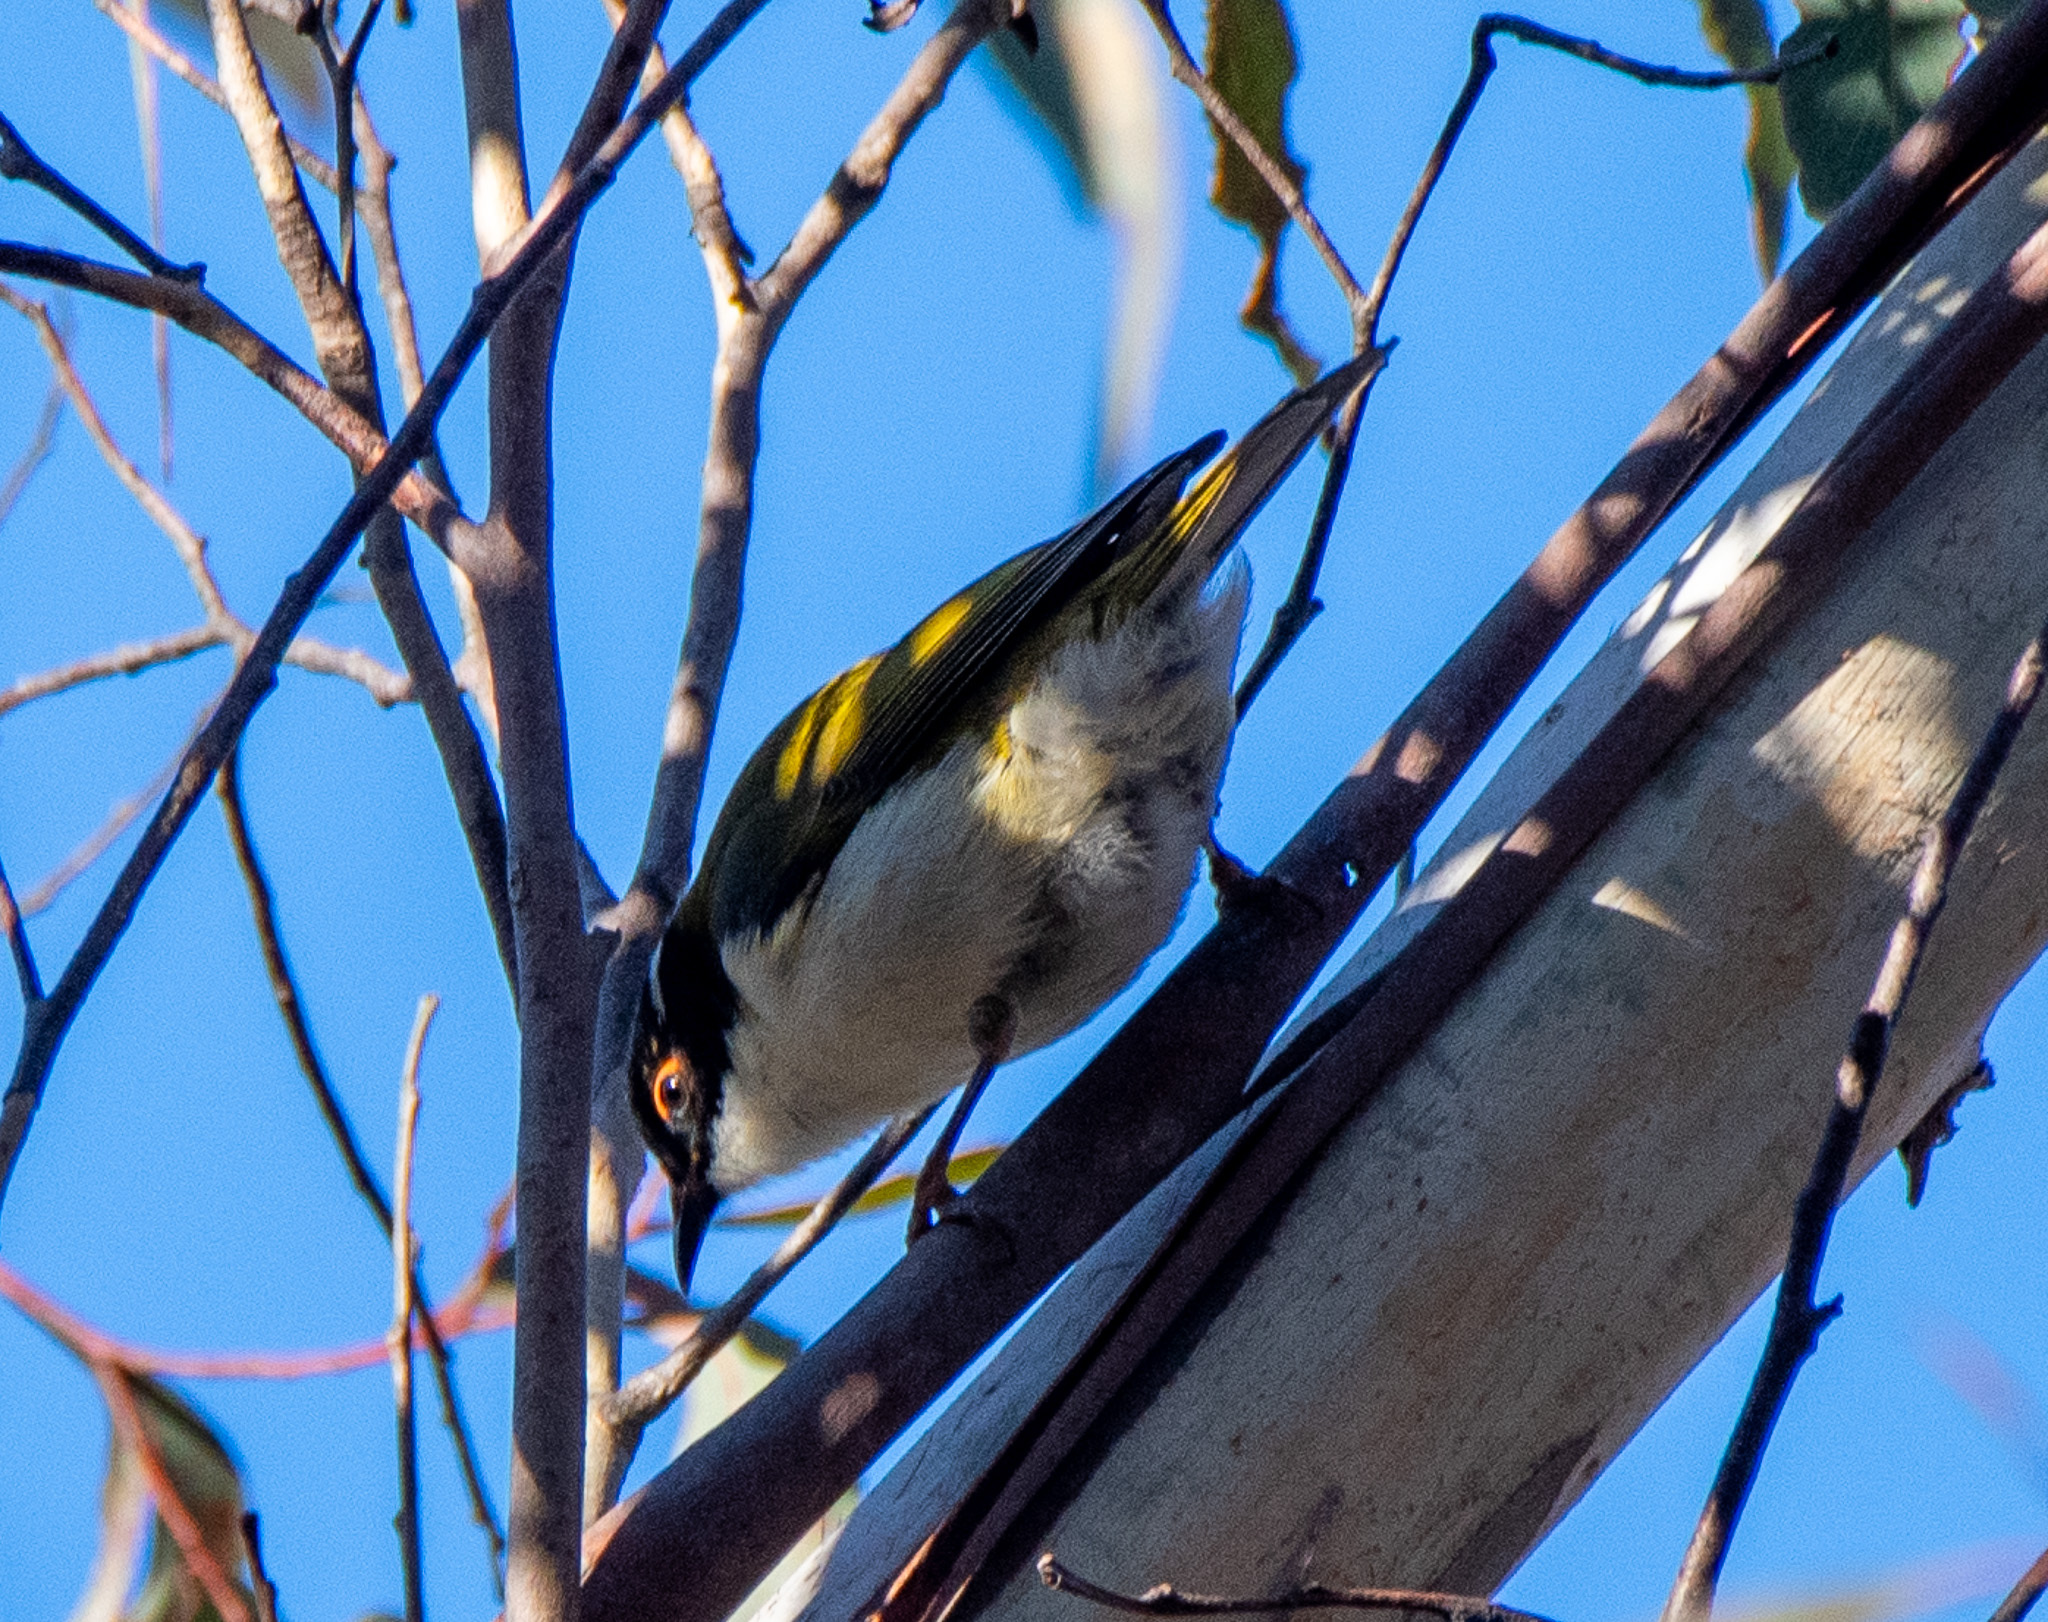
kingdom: Animalia
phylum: Chordata
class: Aves
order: Passeriformes
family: Meliphagidae
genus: Melithreptus
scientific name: Melithreptus lunatus
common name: White-naped honeyeater
